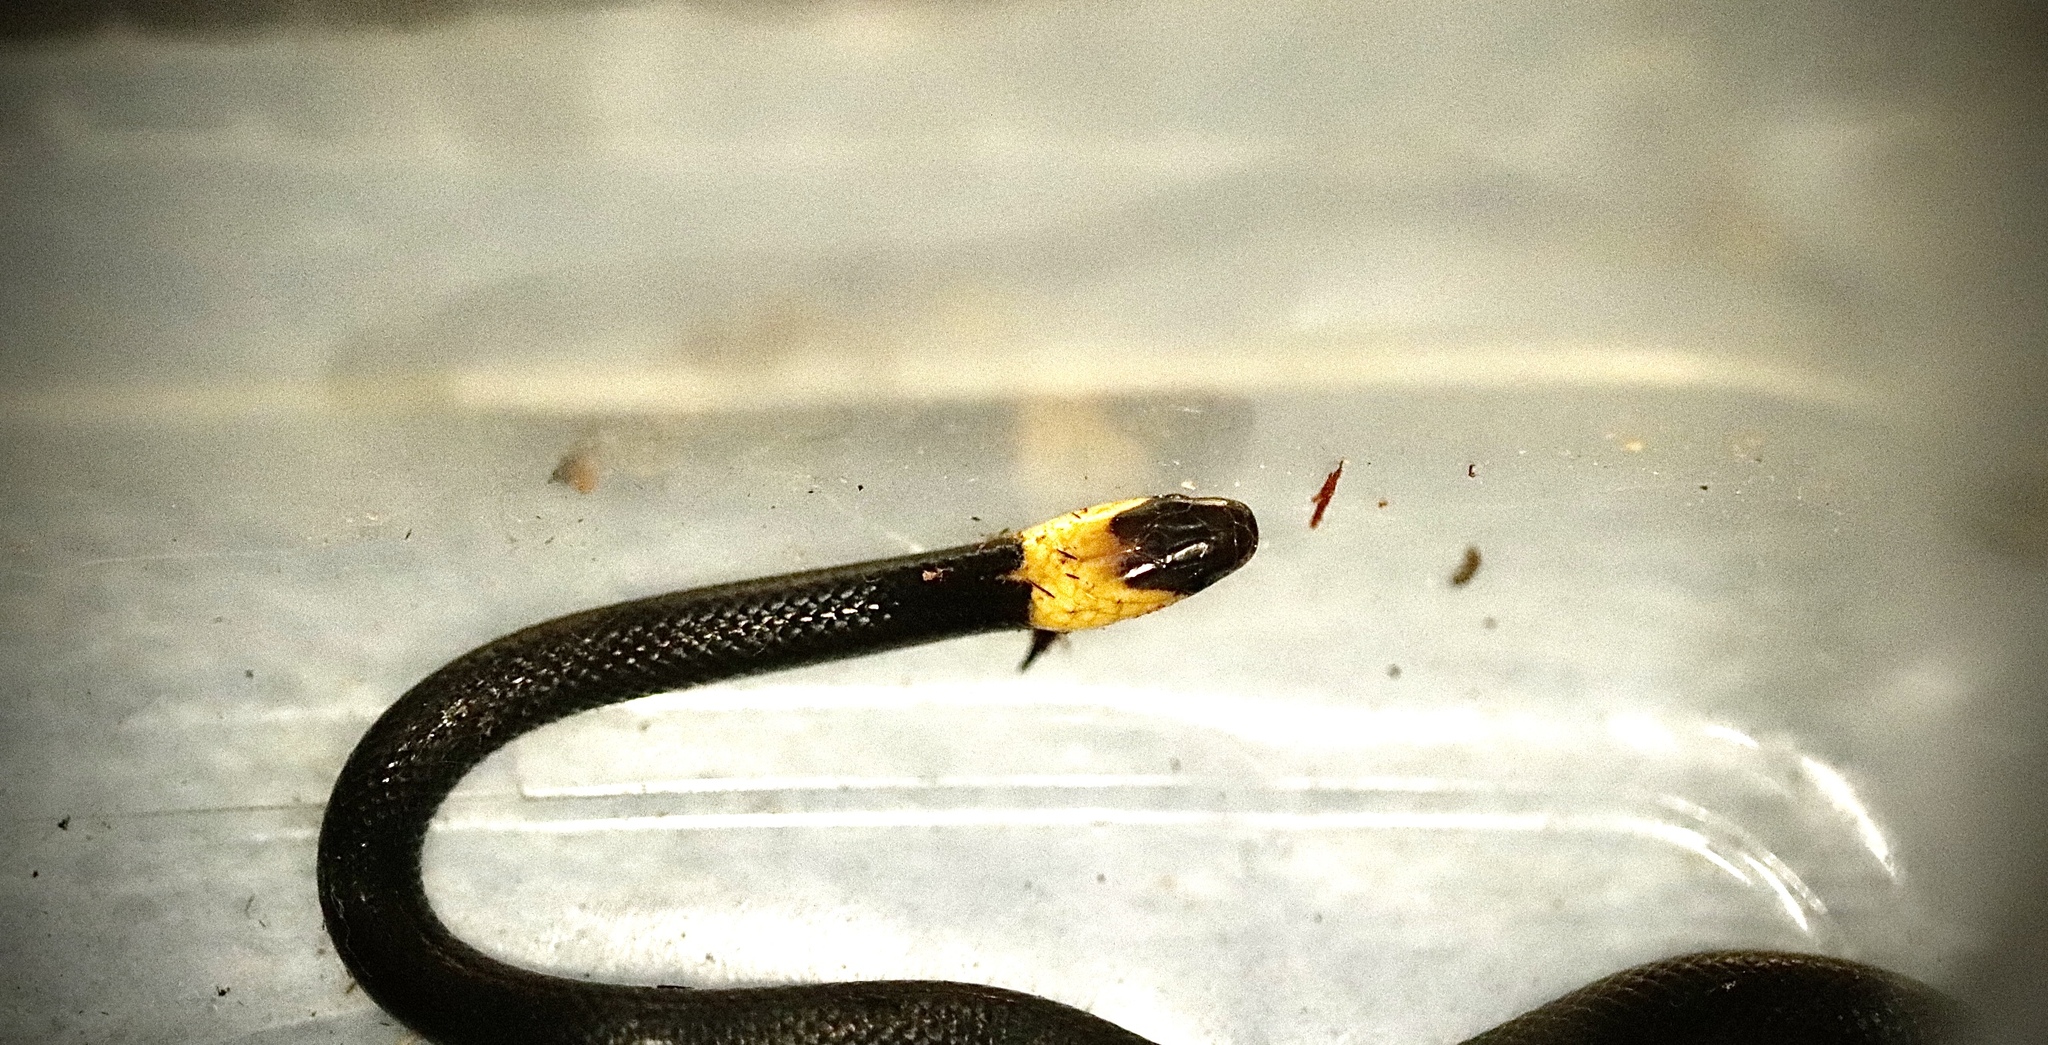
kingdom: Animalia
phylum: Chordata
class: Squamata
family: Colubridae
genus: Tantilla
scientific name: Tantilla moesta
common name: Blackbelly centipede snake
